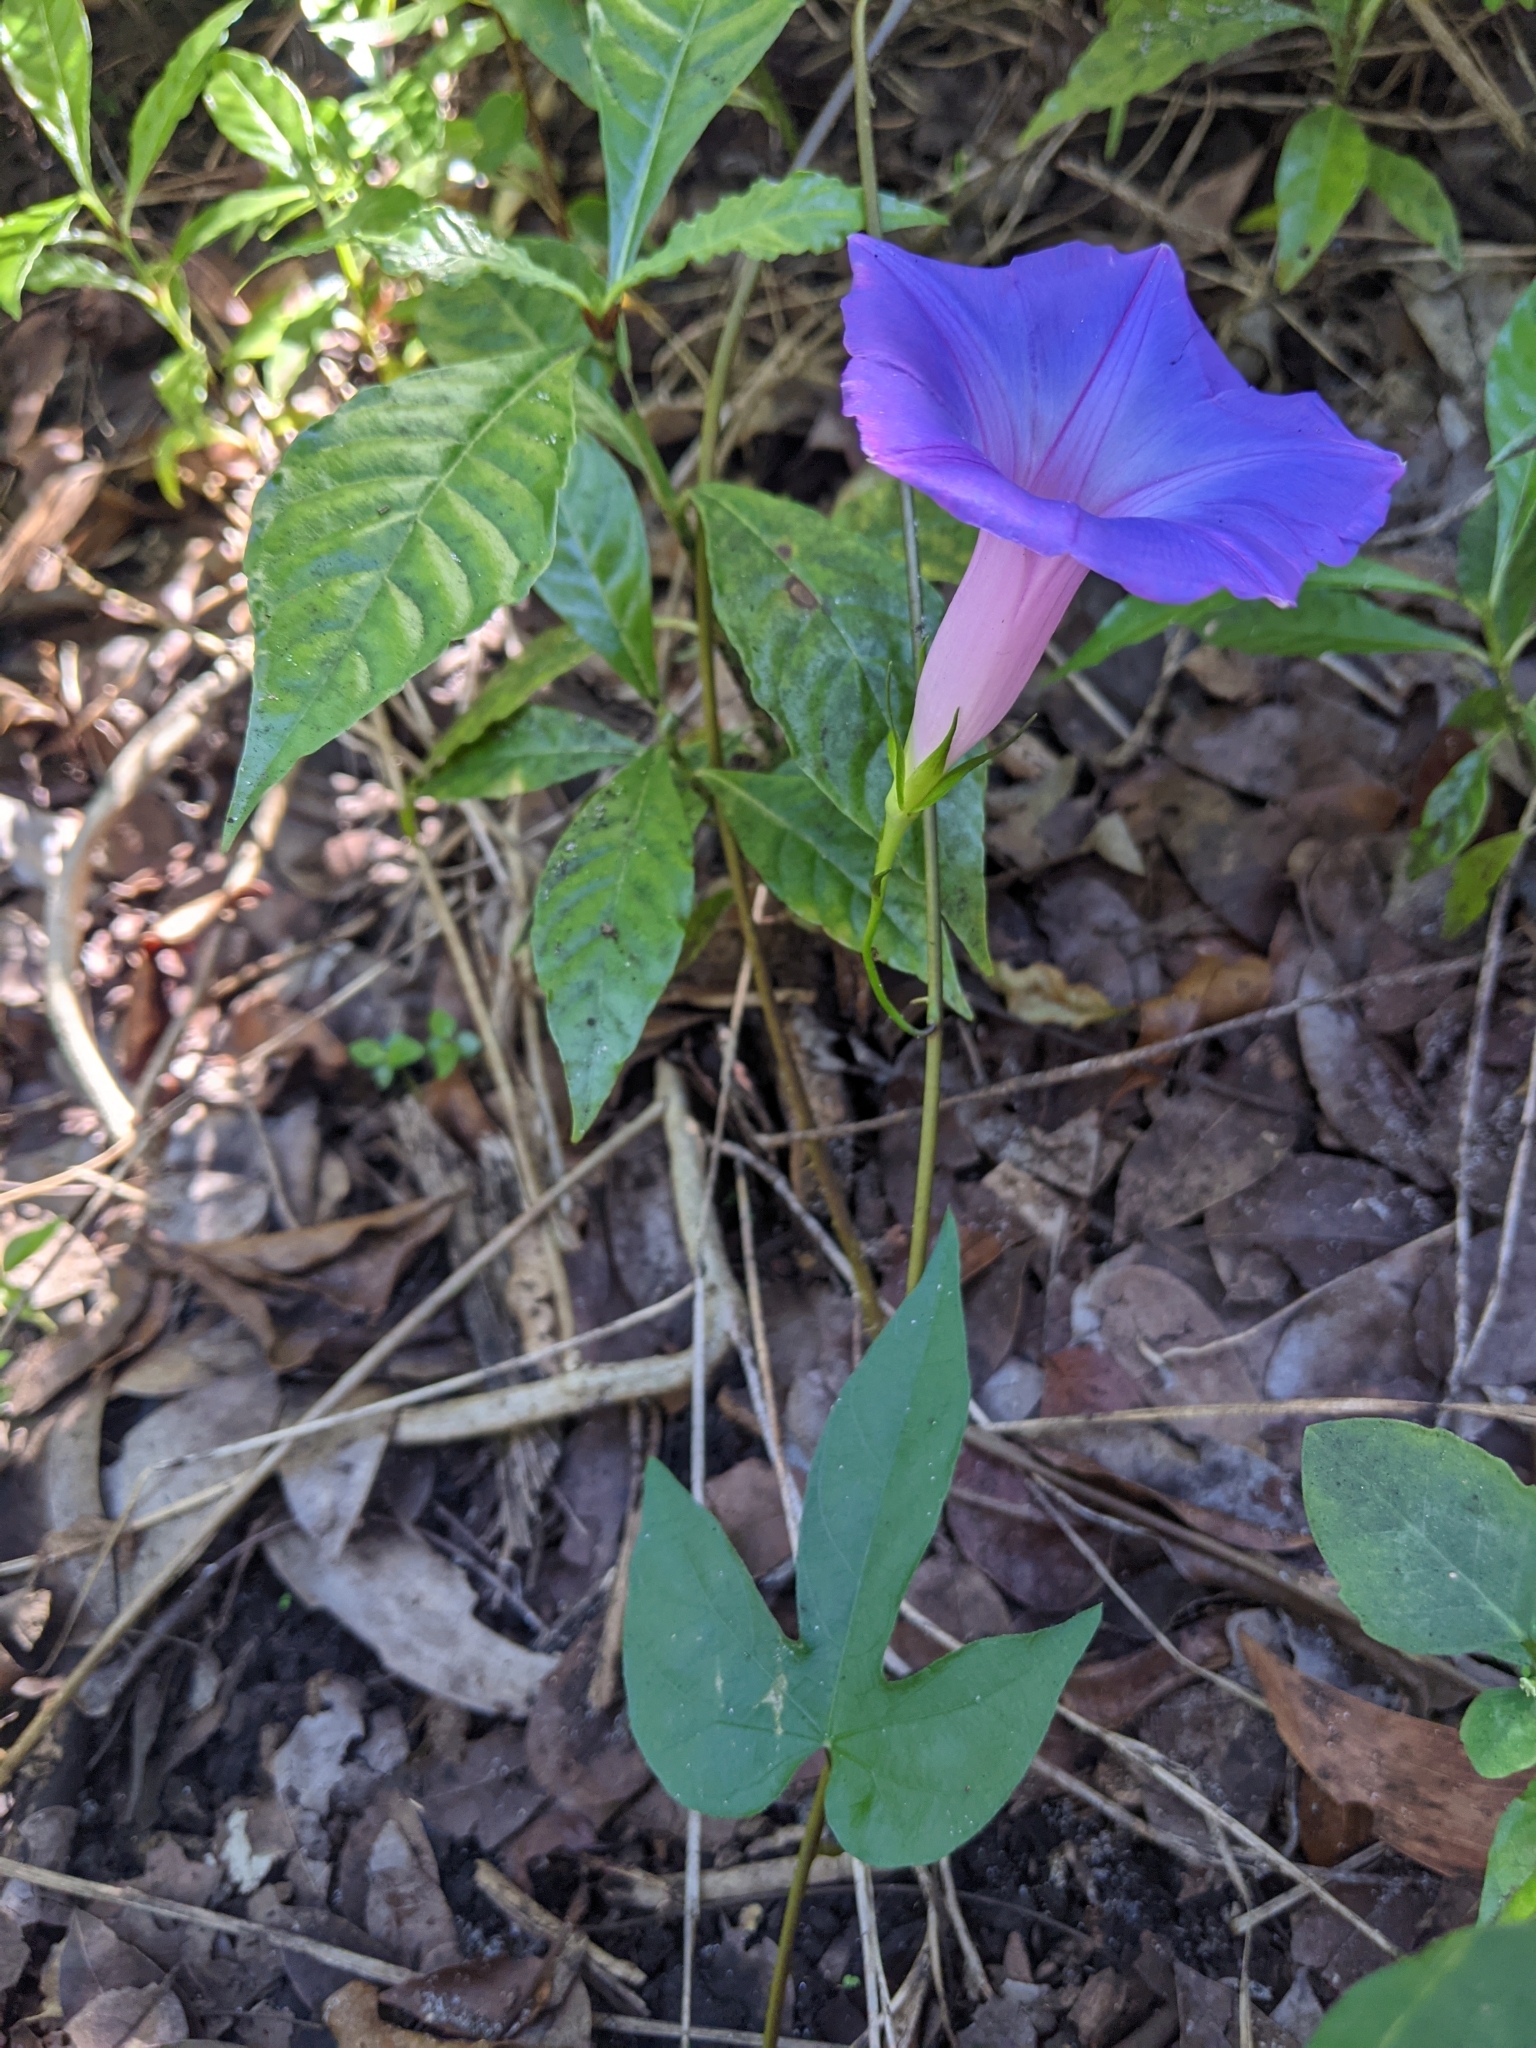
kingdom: Plantae
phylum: Tracheophyta
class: Magnoliopsida
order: Solanales
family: Convolvulaceae
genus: Ipomoea
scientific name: Ipomoea indica
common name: Blue dawnflower
